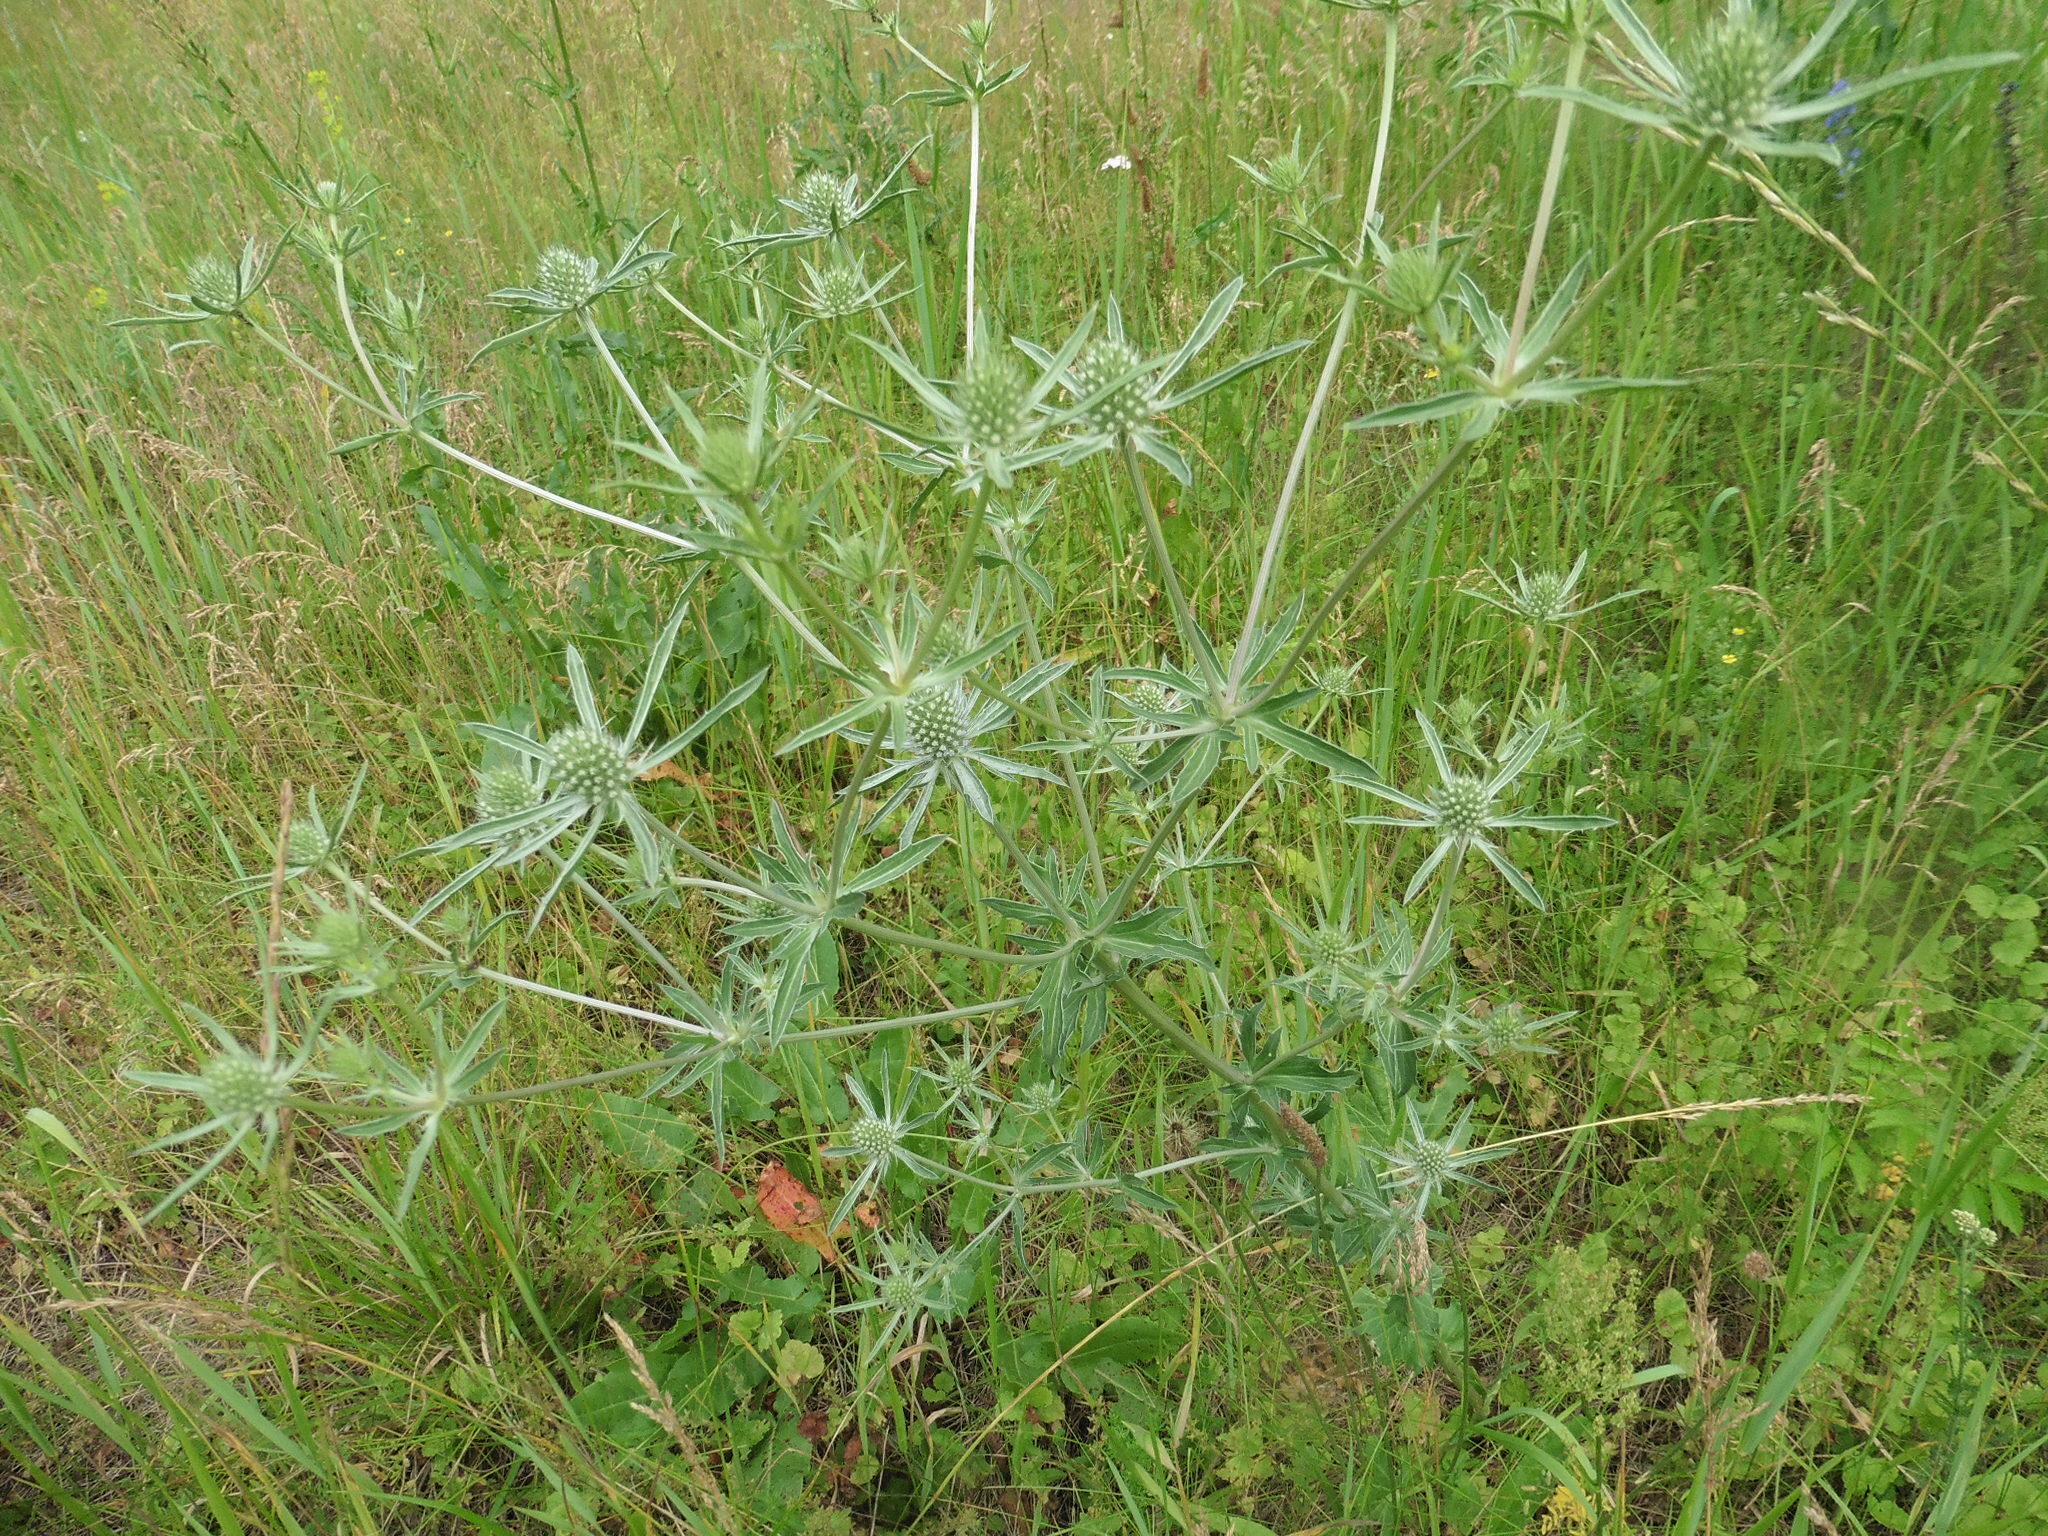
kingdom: Plantae
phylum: Tracheophyta
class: Magnoliopsida
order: Apiales
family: Apiaceae
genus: Eryngium
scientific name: Eryngium planum
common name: Blue eryngo
